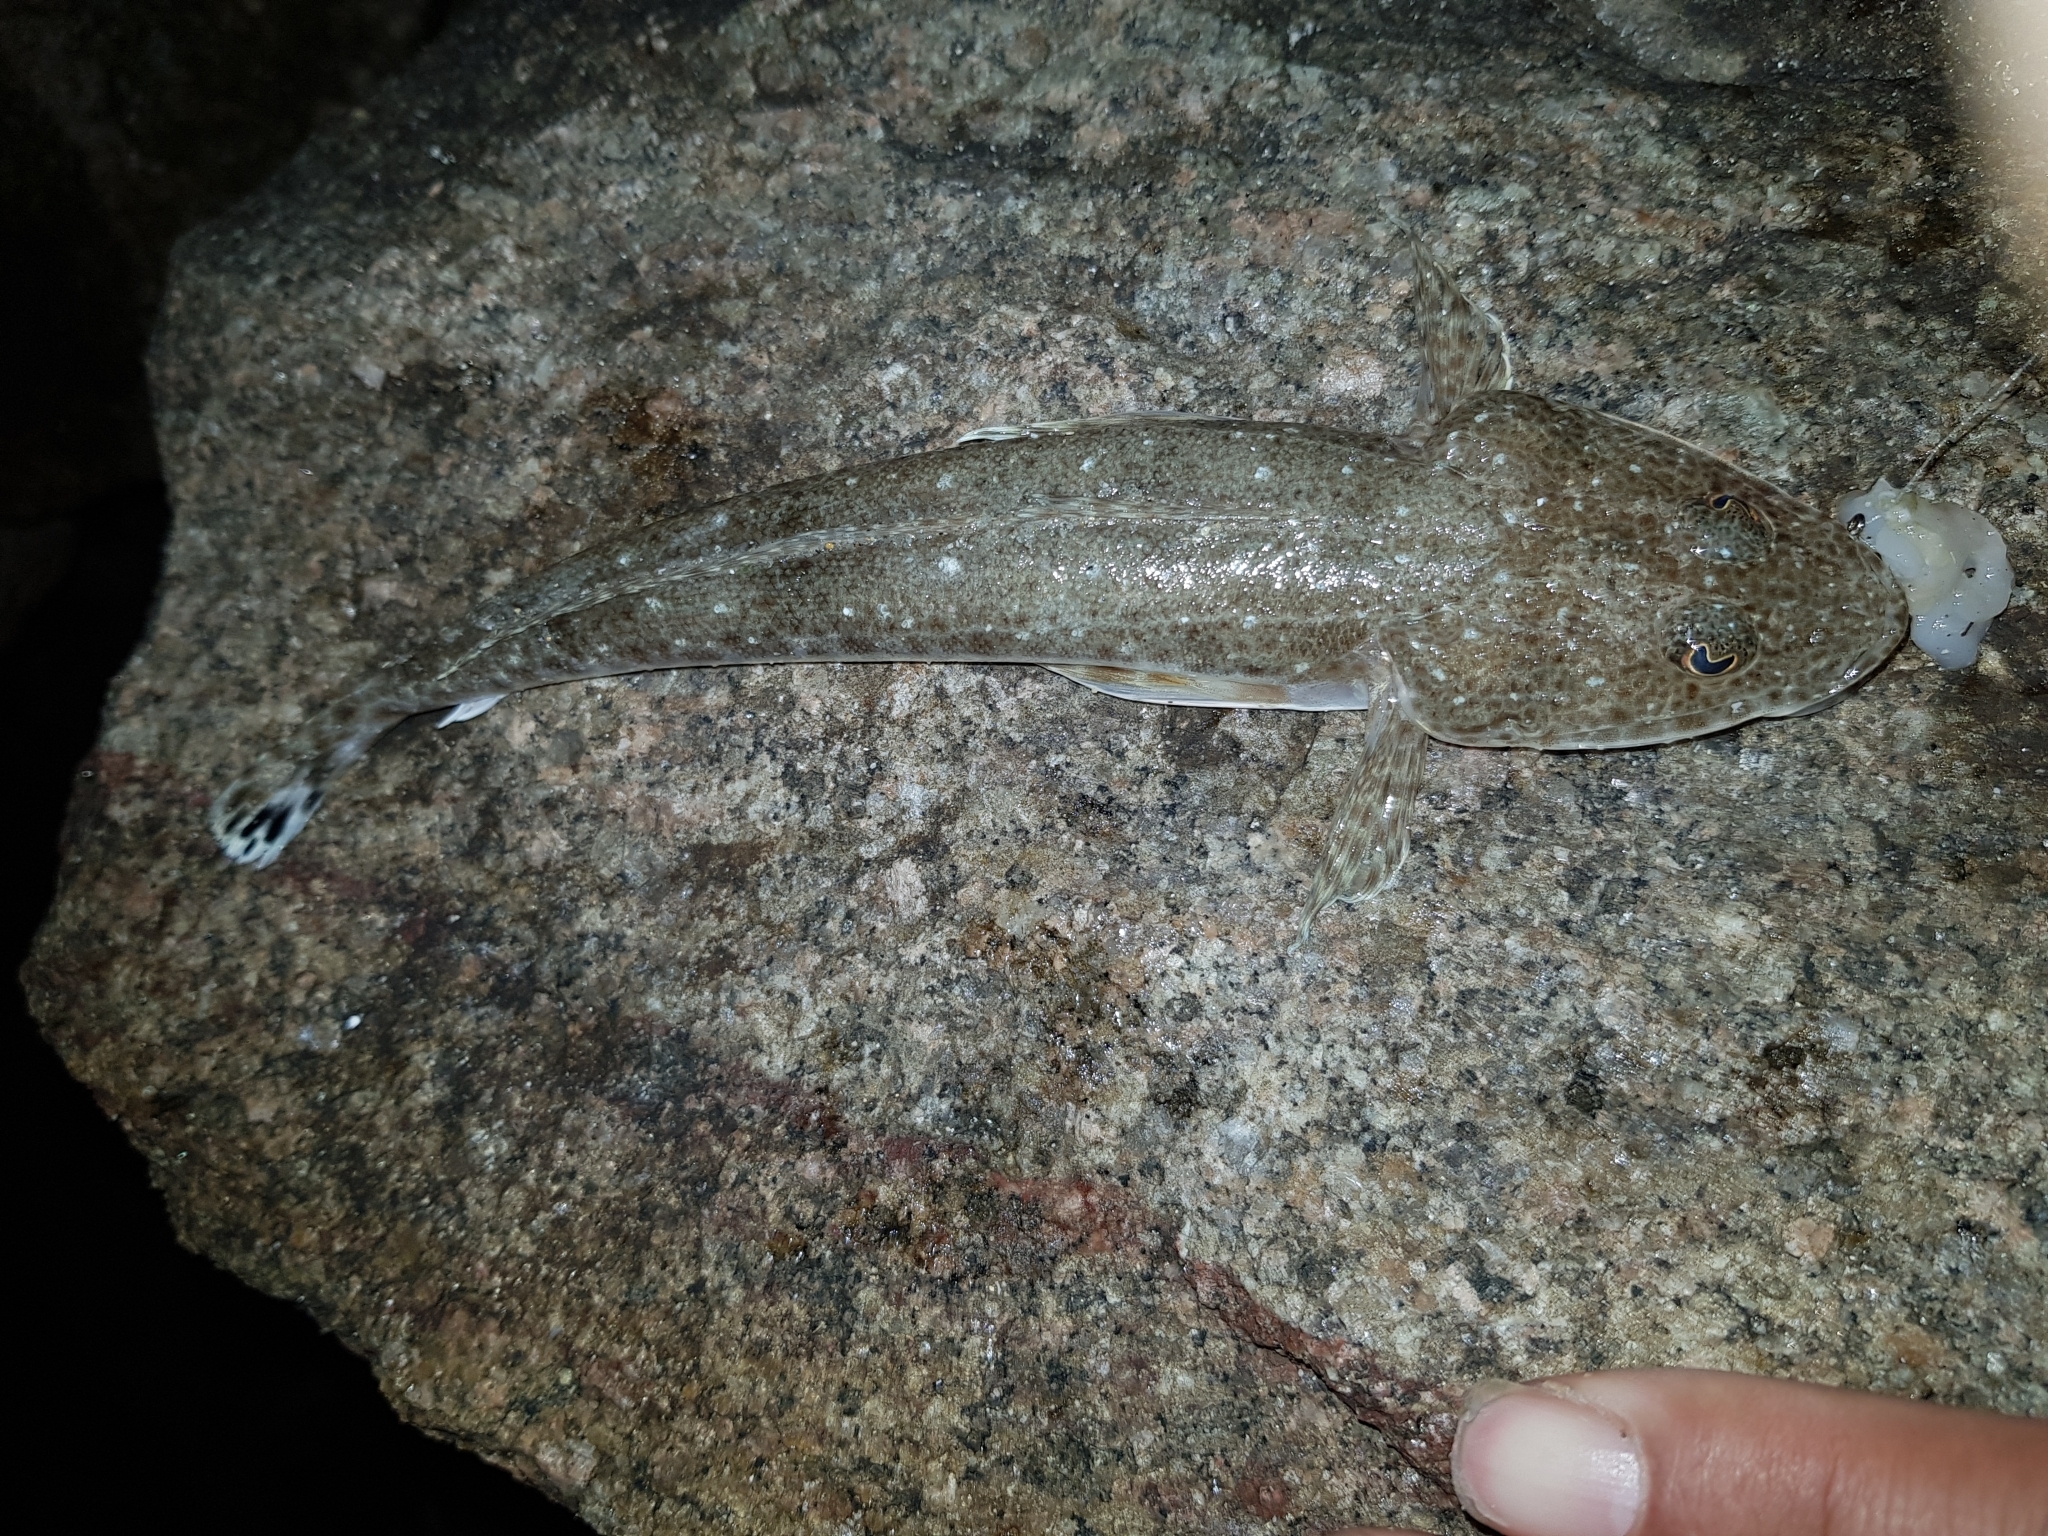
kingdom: Animalia
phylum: Chordata
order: Scorpaeniformes
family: Platycephalidae
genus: Platycephalus
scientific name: Platycephalus bassensis
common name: Sand flathead
